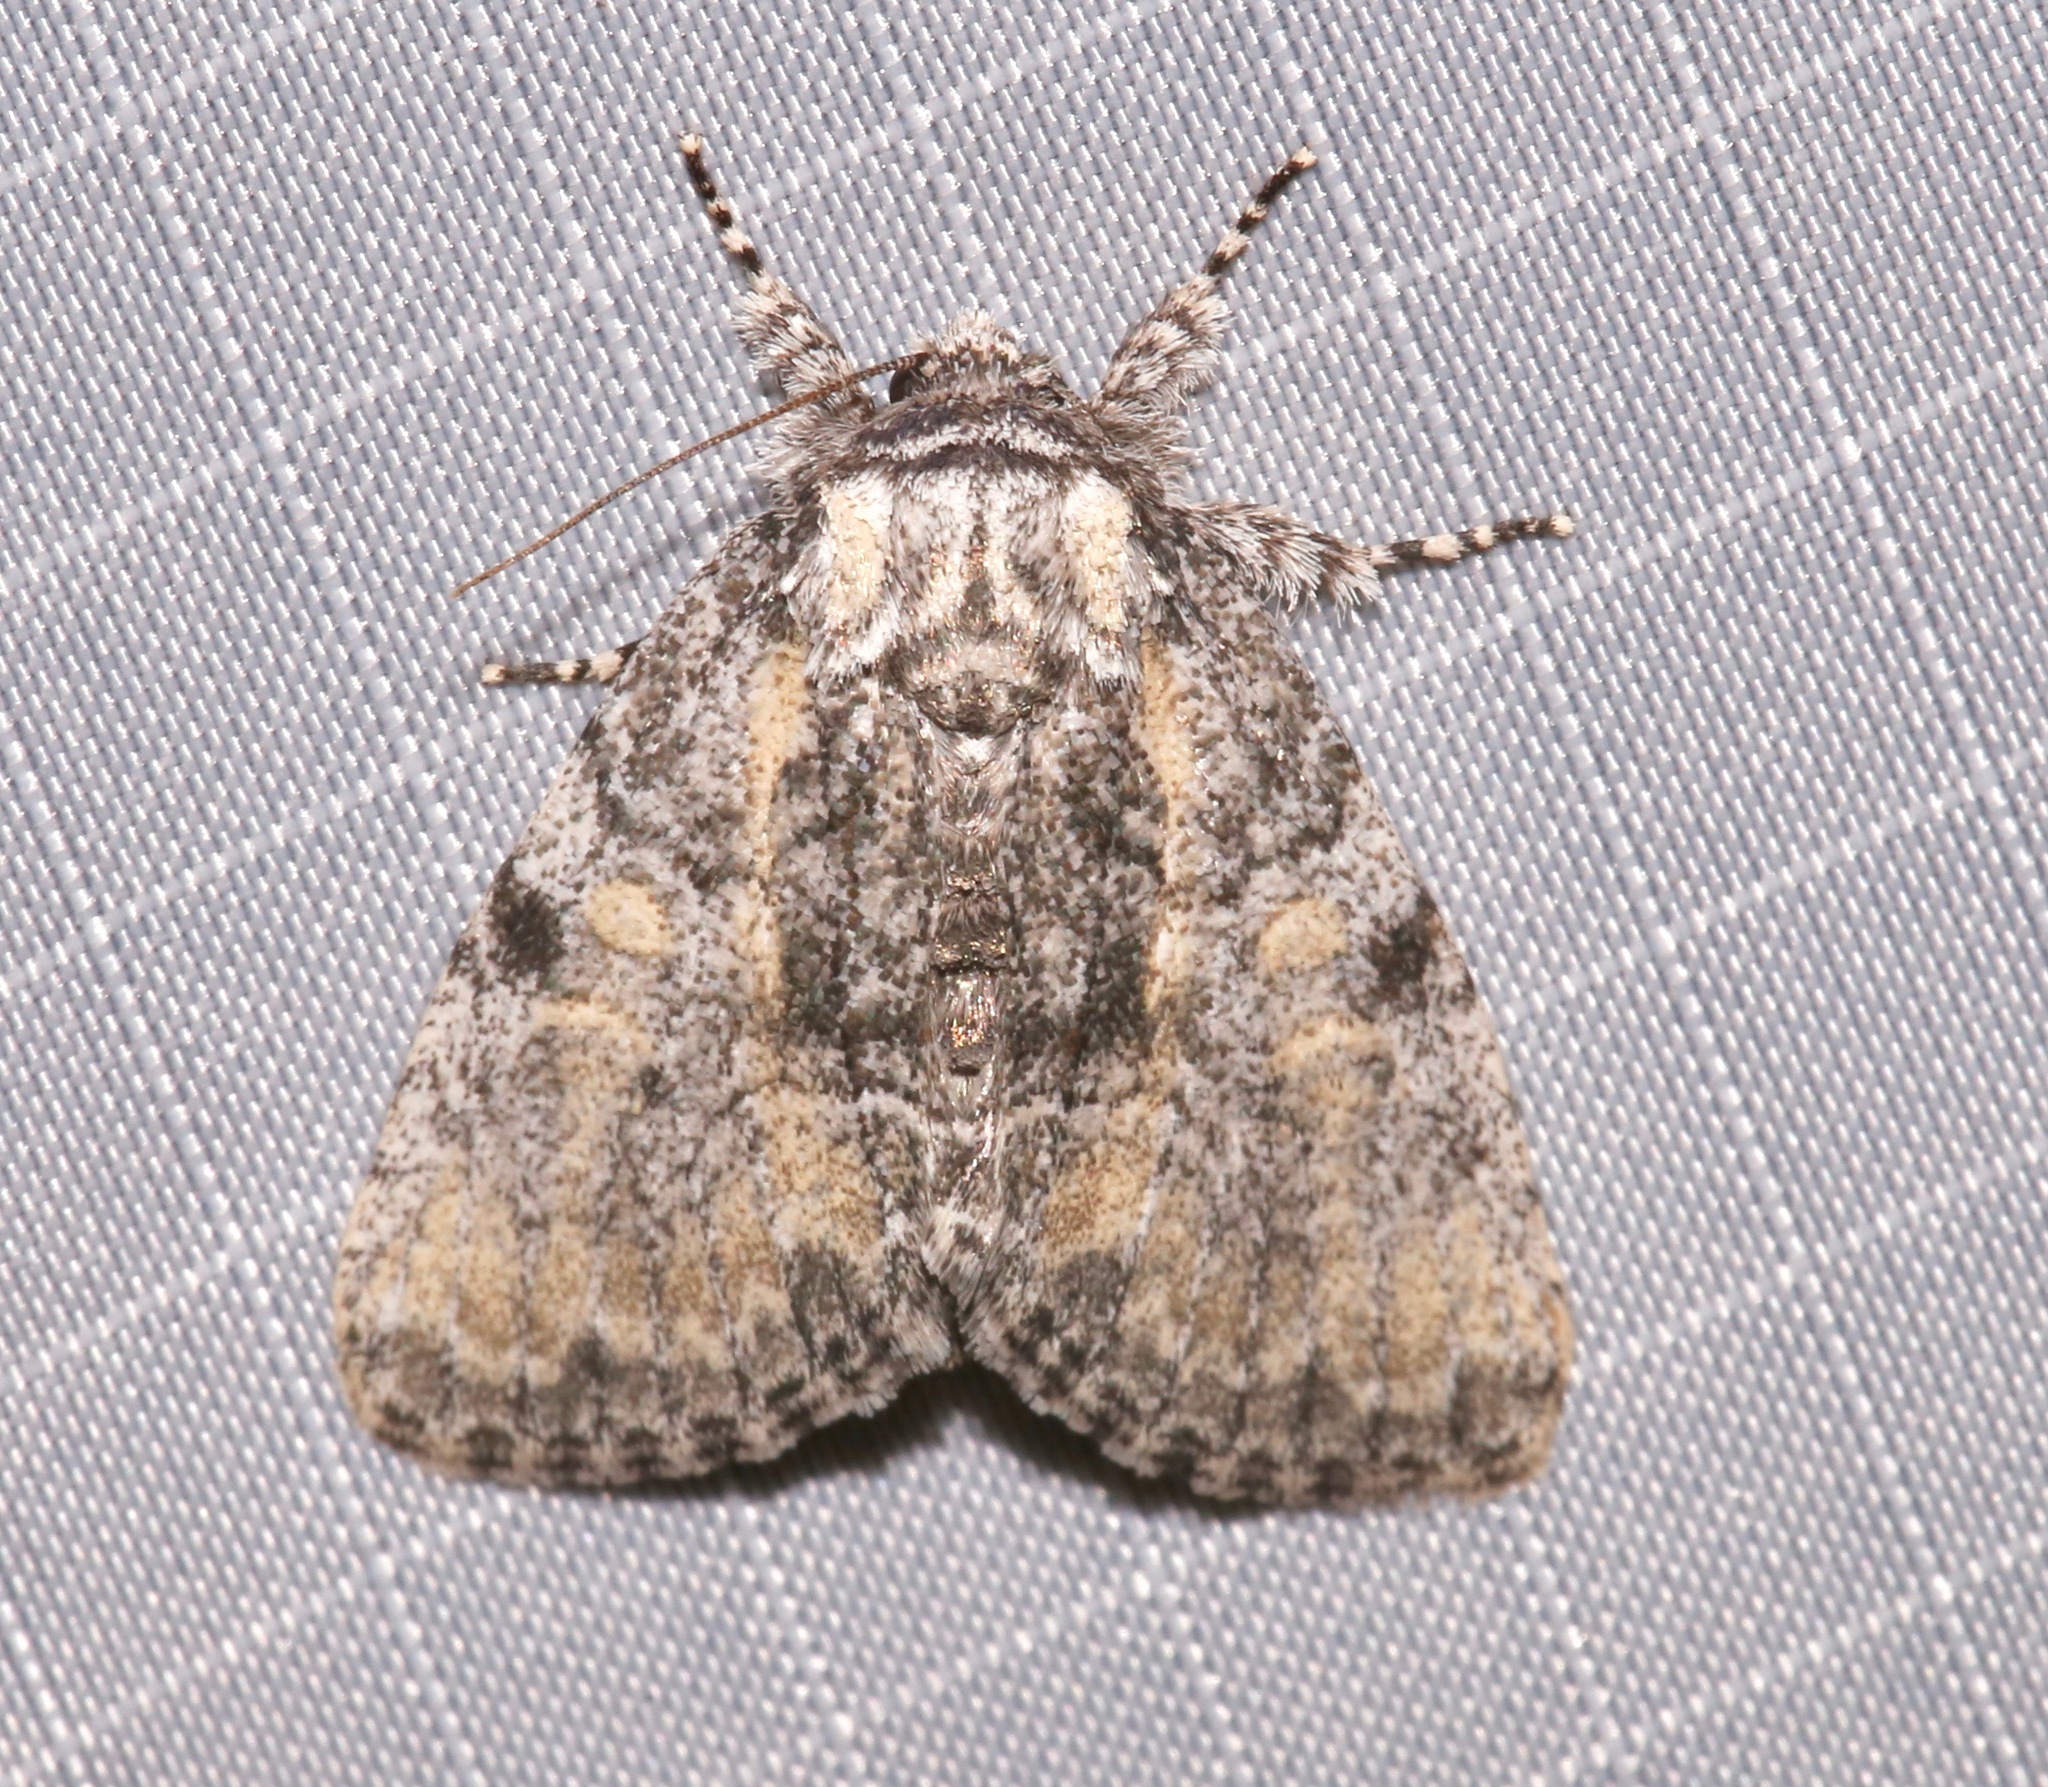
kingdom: Animalia
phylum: Arthropoda
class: Insecta
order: Lepidoptera
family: Noctuidae
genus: Raphia
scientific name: Raphia frater
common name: Brother
